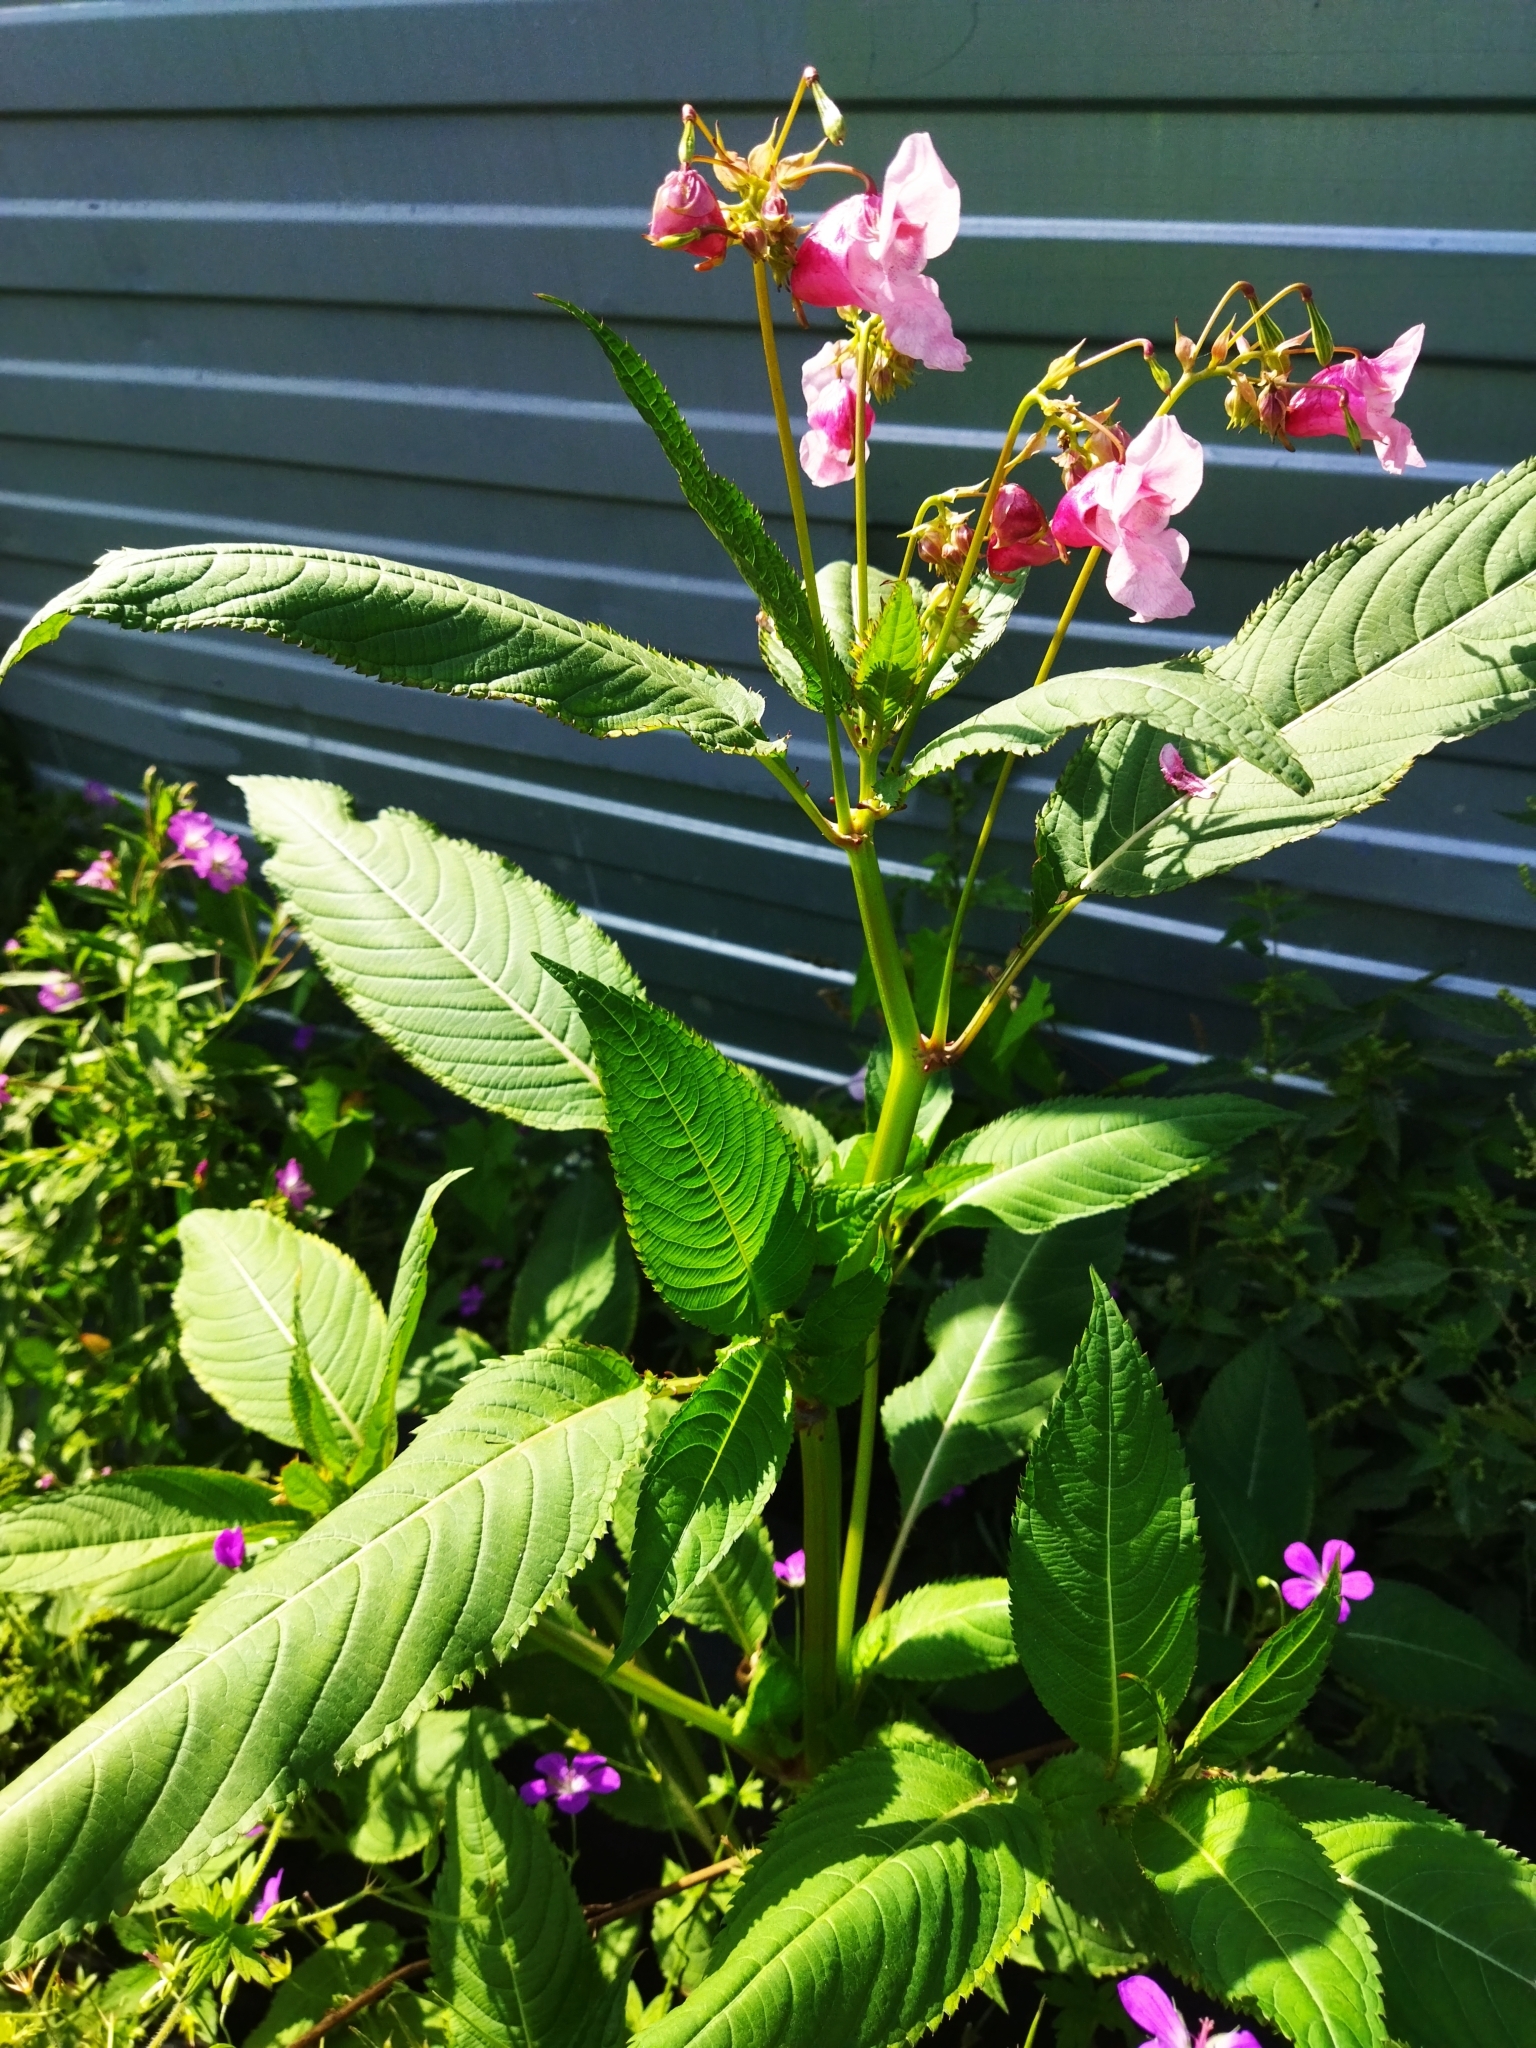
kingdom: Plantae
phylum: Tracheophyta
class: Magnoliopsida
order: Ericales
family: Balsaminaceae
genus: Impatiens
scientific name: Impatiens glandulifera
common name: Himalayan balsam
